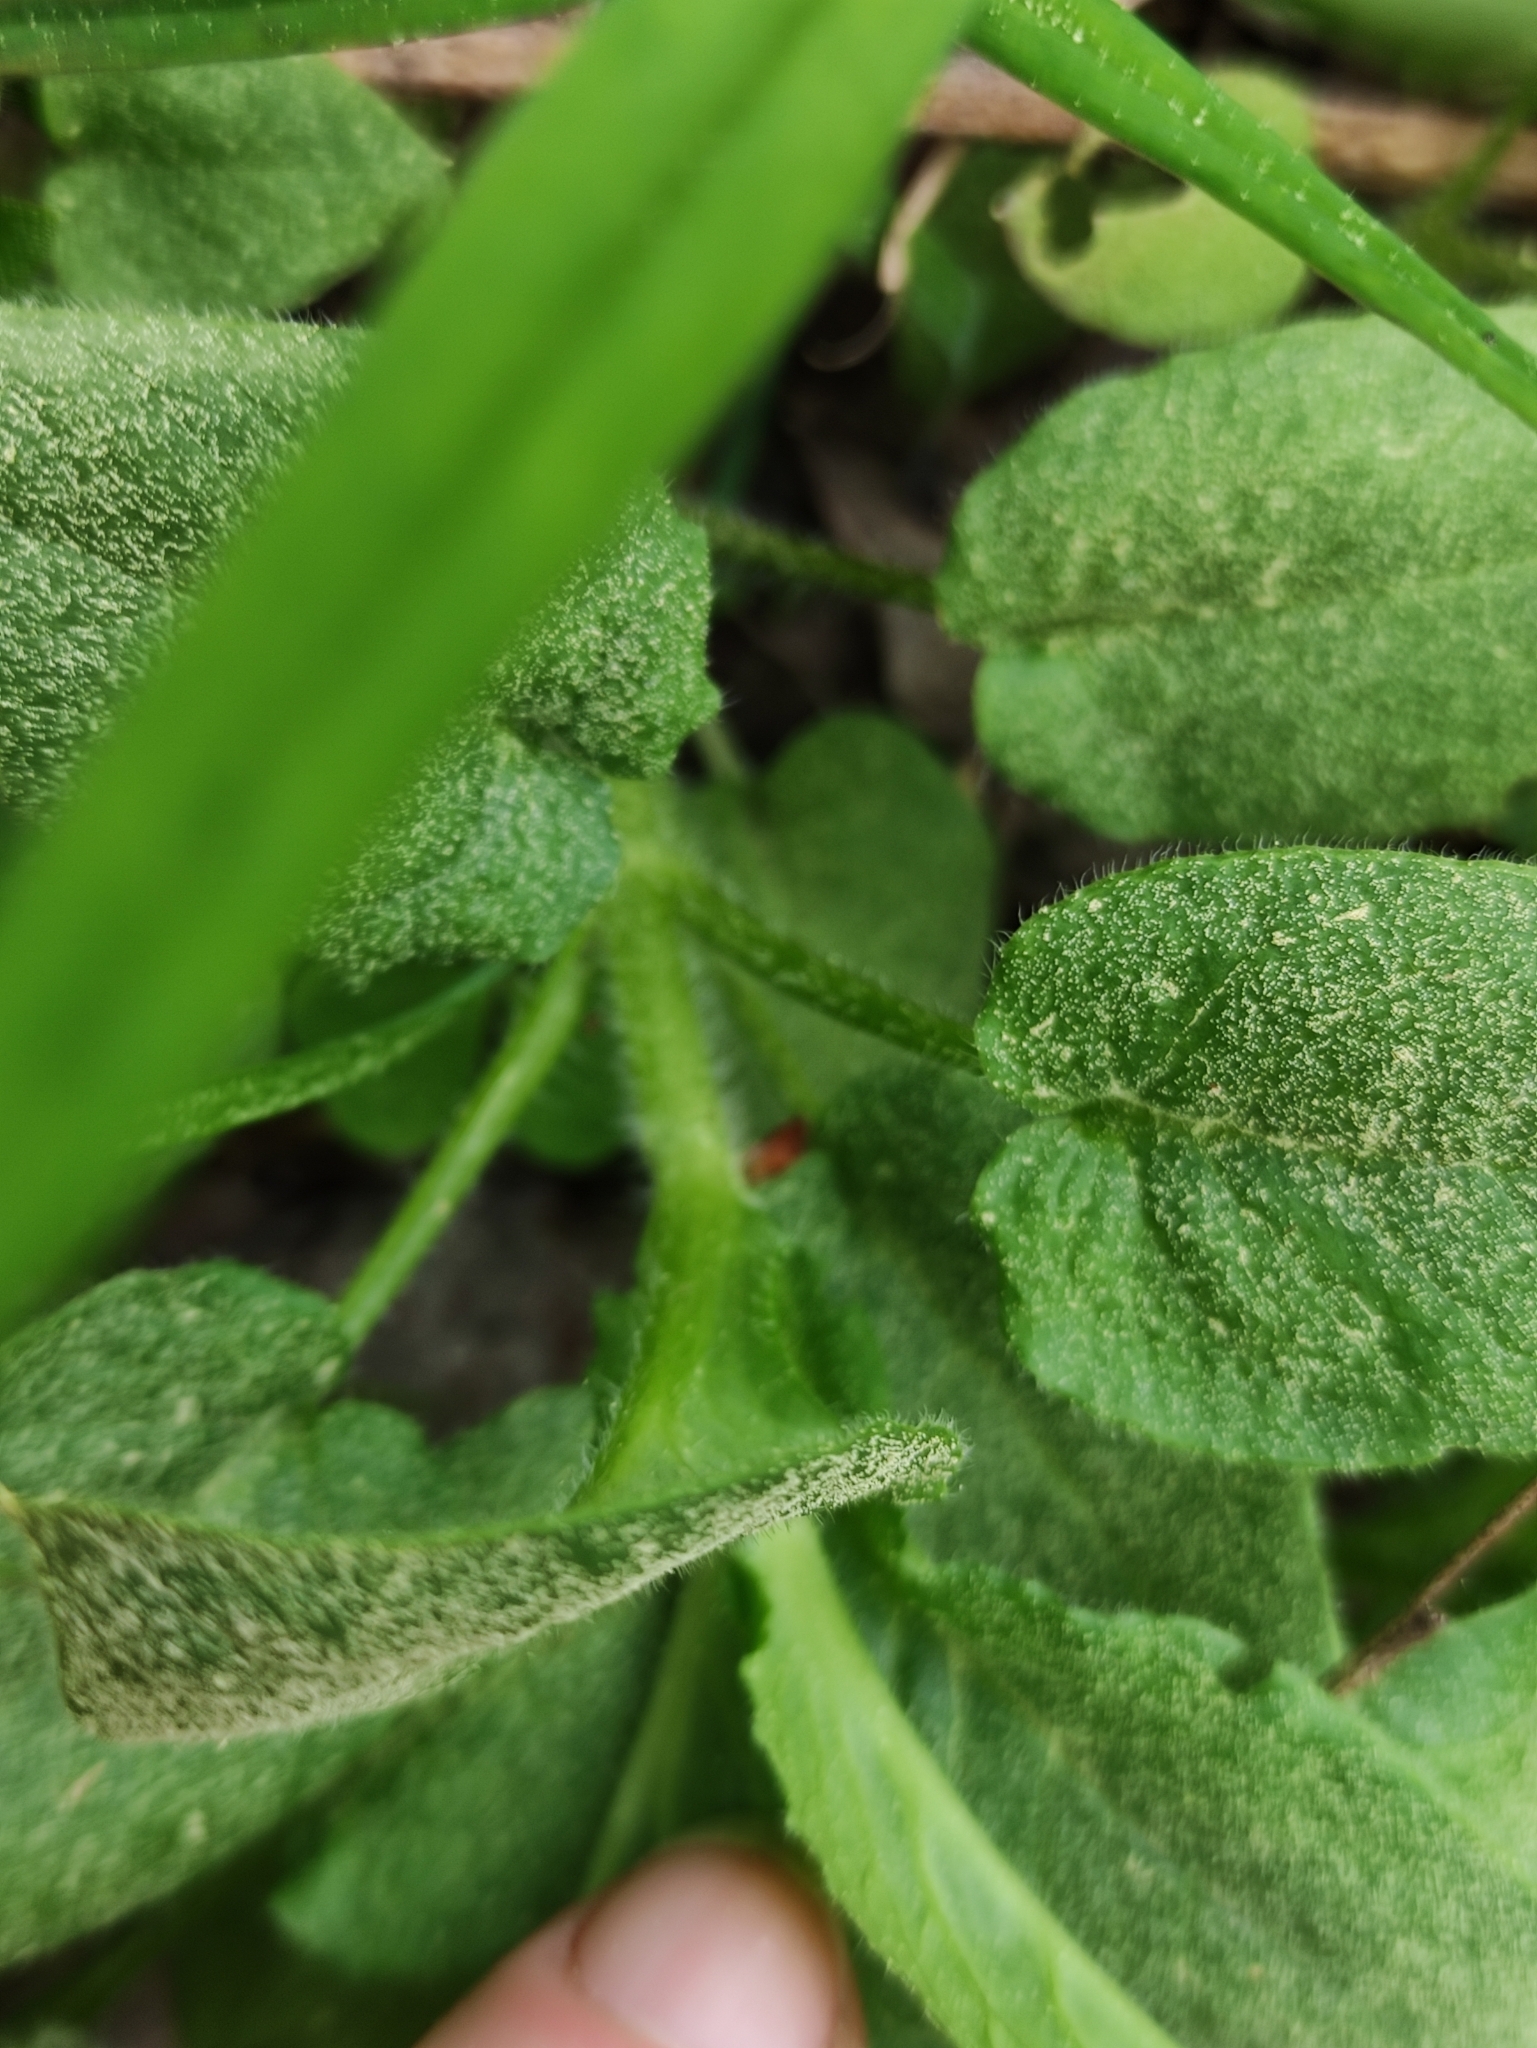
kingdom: Plantae
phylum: Tracheophyta
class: Magnoliopsida
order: Caryophyllales
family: Caryophyllaceae
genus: Stellaria
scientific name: Stellaria nemorum
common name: Wood stitchwort
